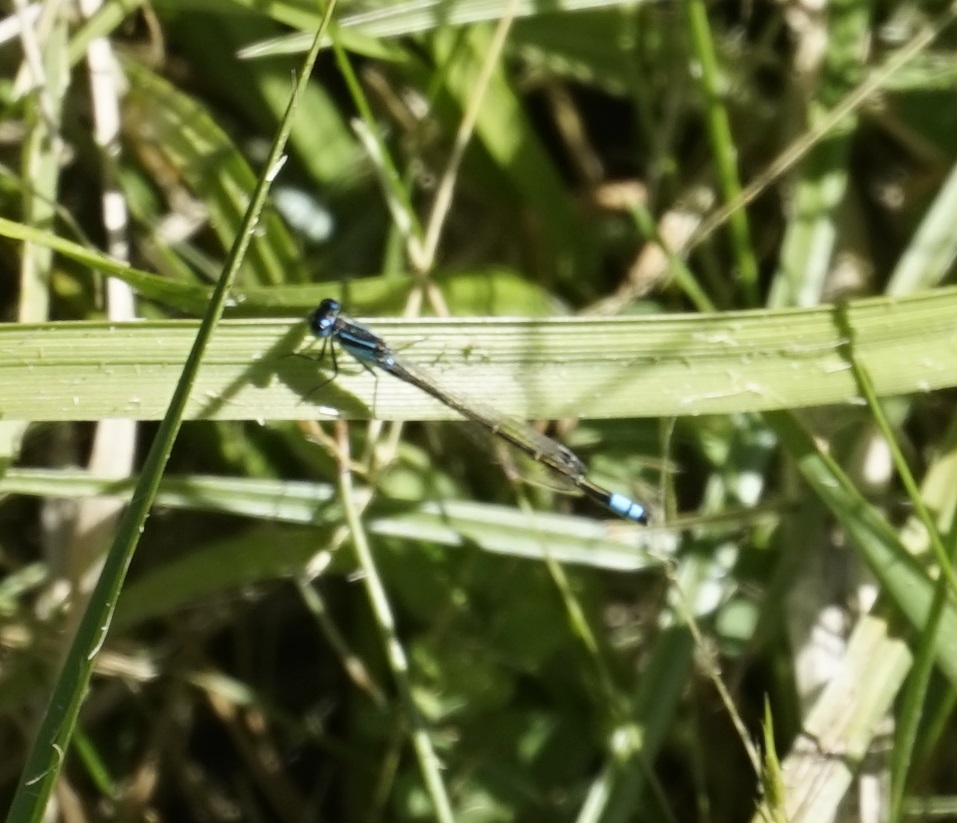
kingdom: Animalia
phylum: Arthropoda
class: Insecta
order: Odonata
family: Coenagrionidae
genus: Ischnura
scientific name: Ischnura heterosticta
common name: Common bluetail
